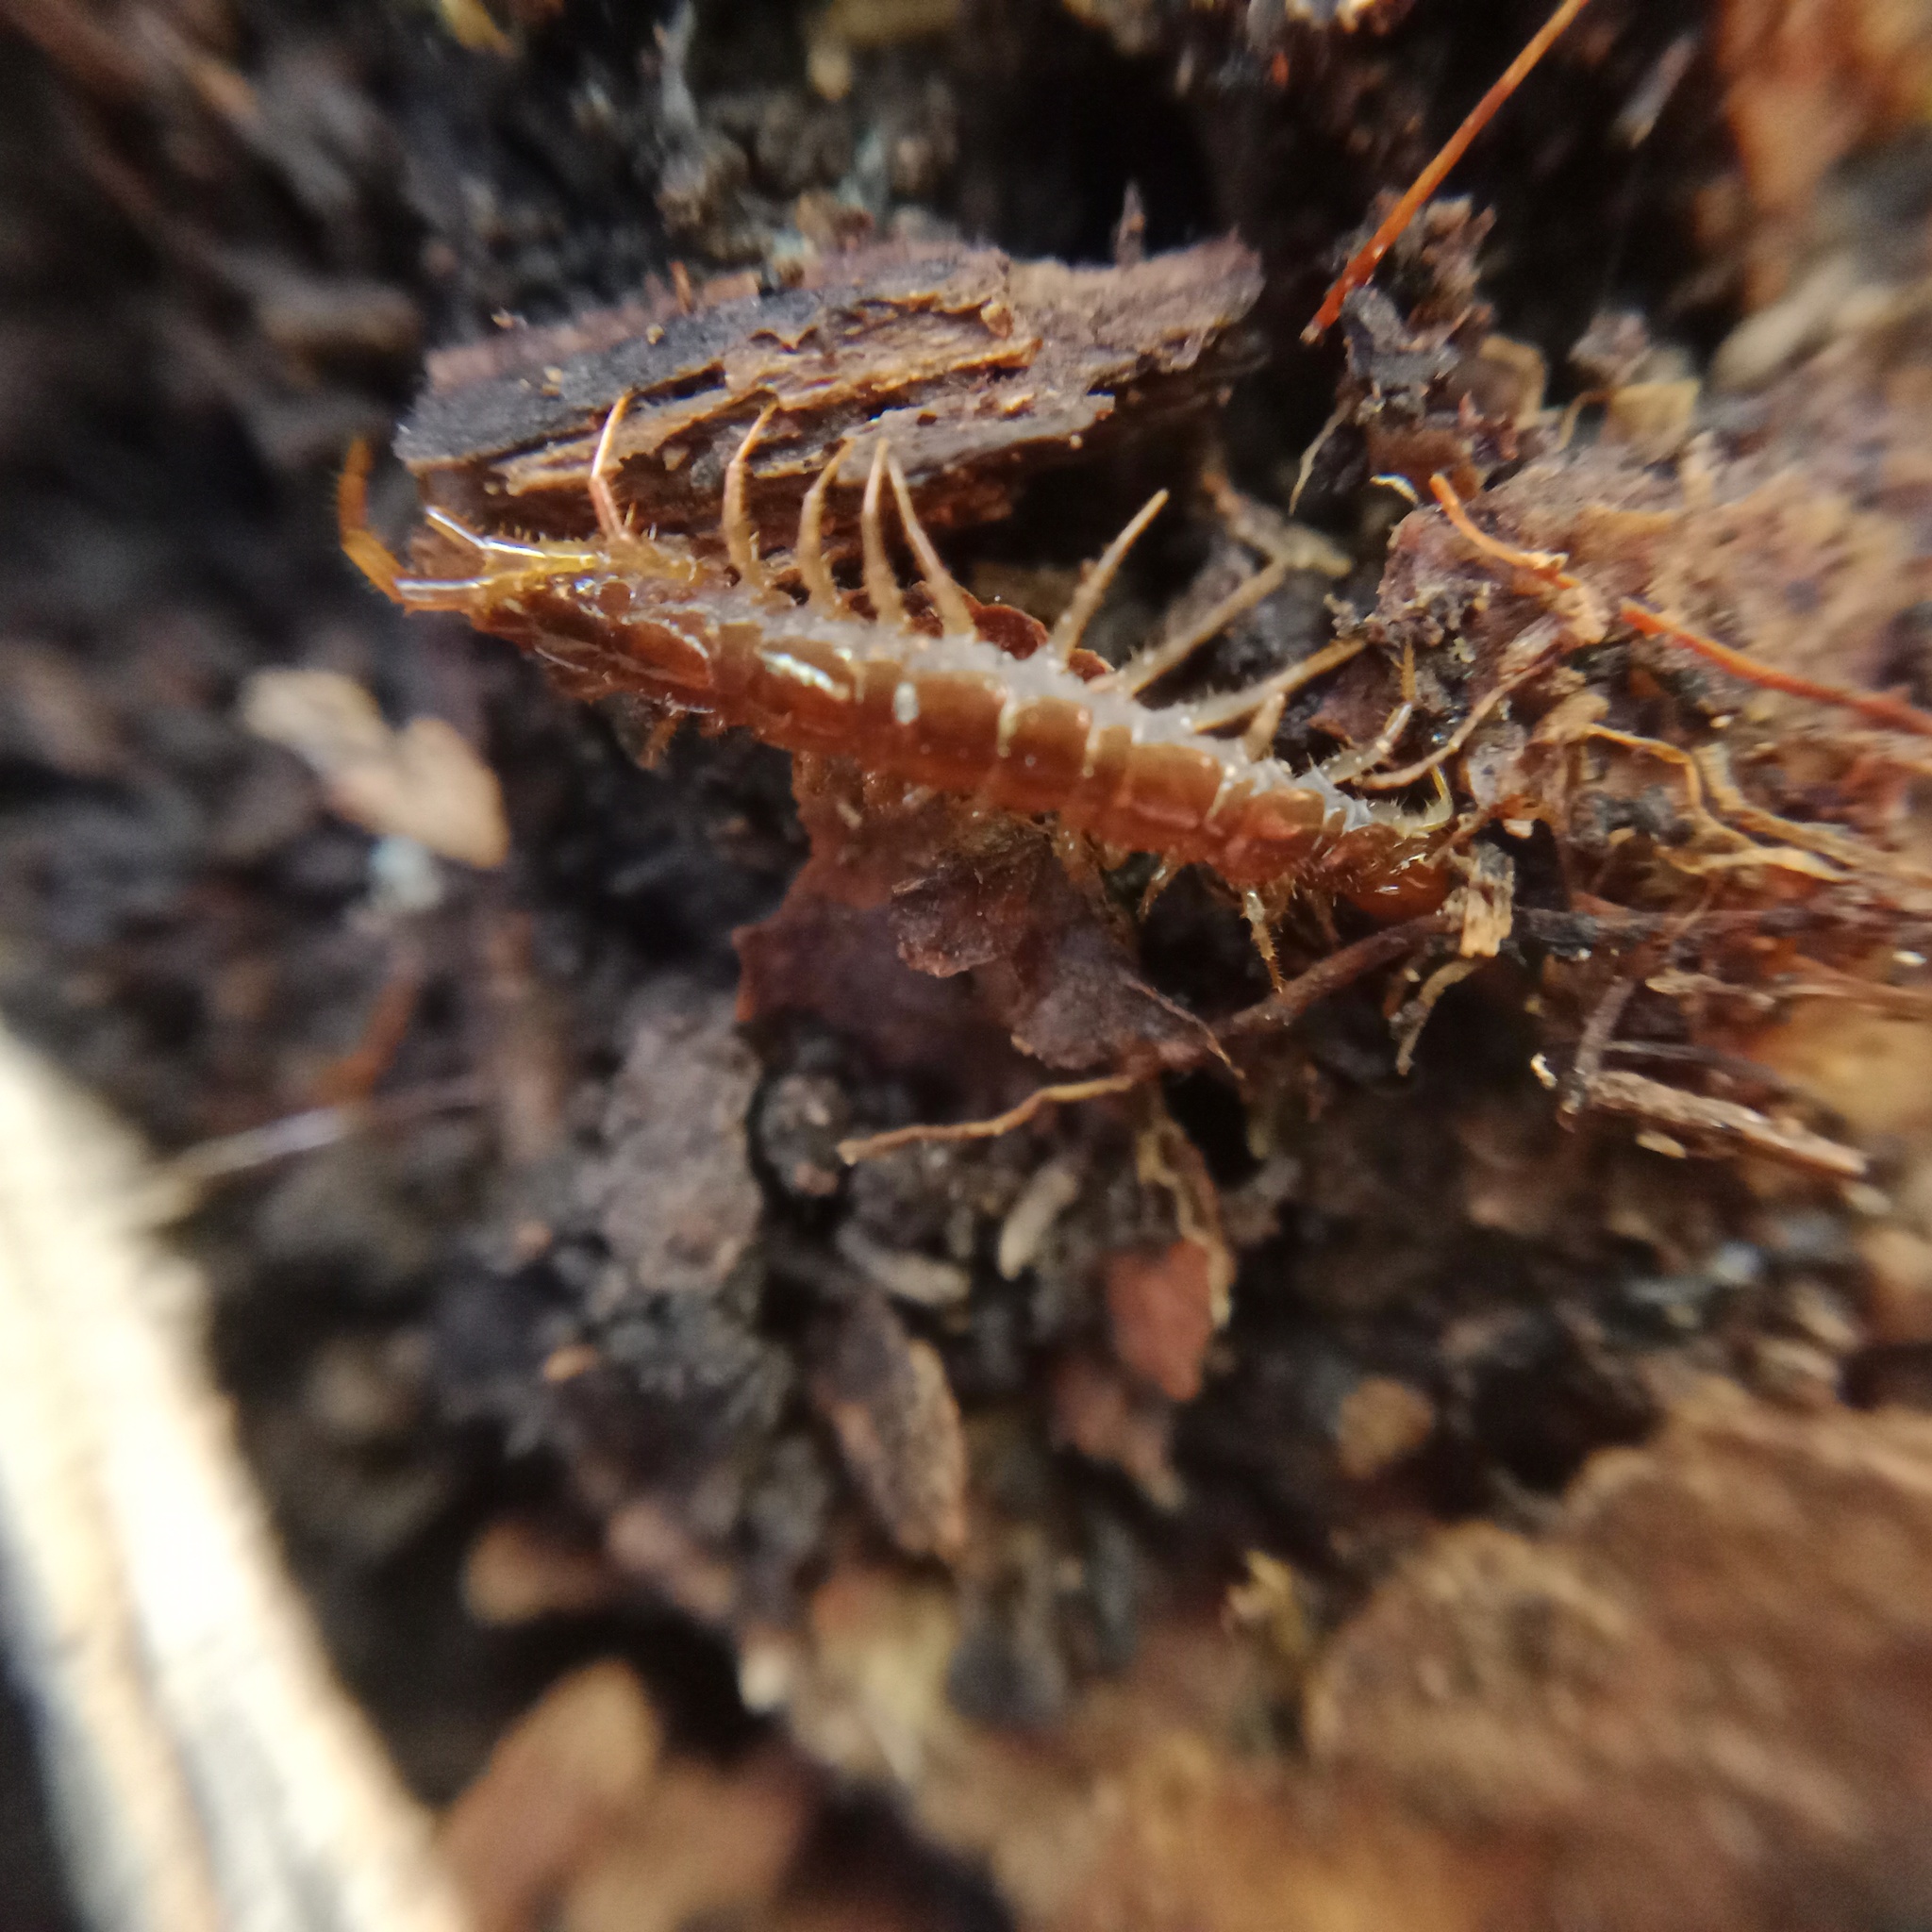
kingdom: Animalia
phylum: Arthropoda
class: Chilopoda
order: Lithobiomorpha
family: Lithobiidae
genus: Lithobius
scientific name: Lithobius forficatus
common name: Centipede
